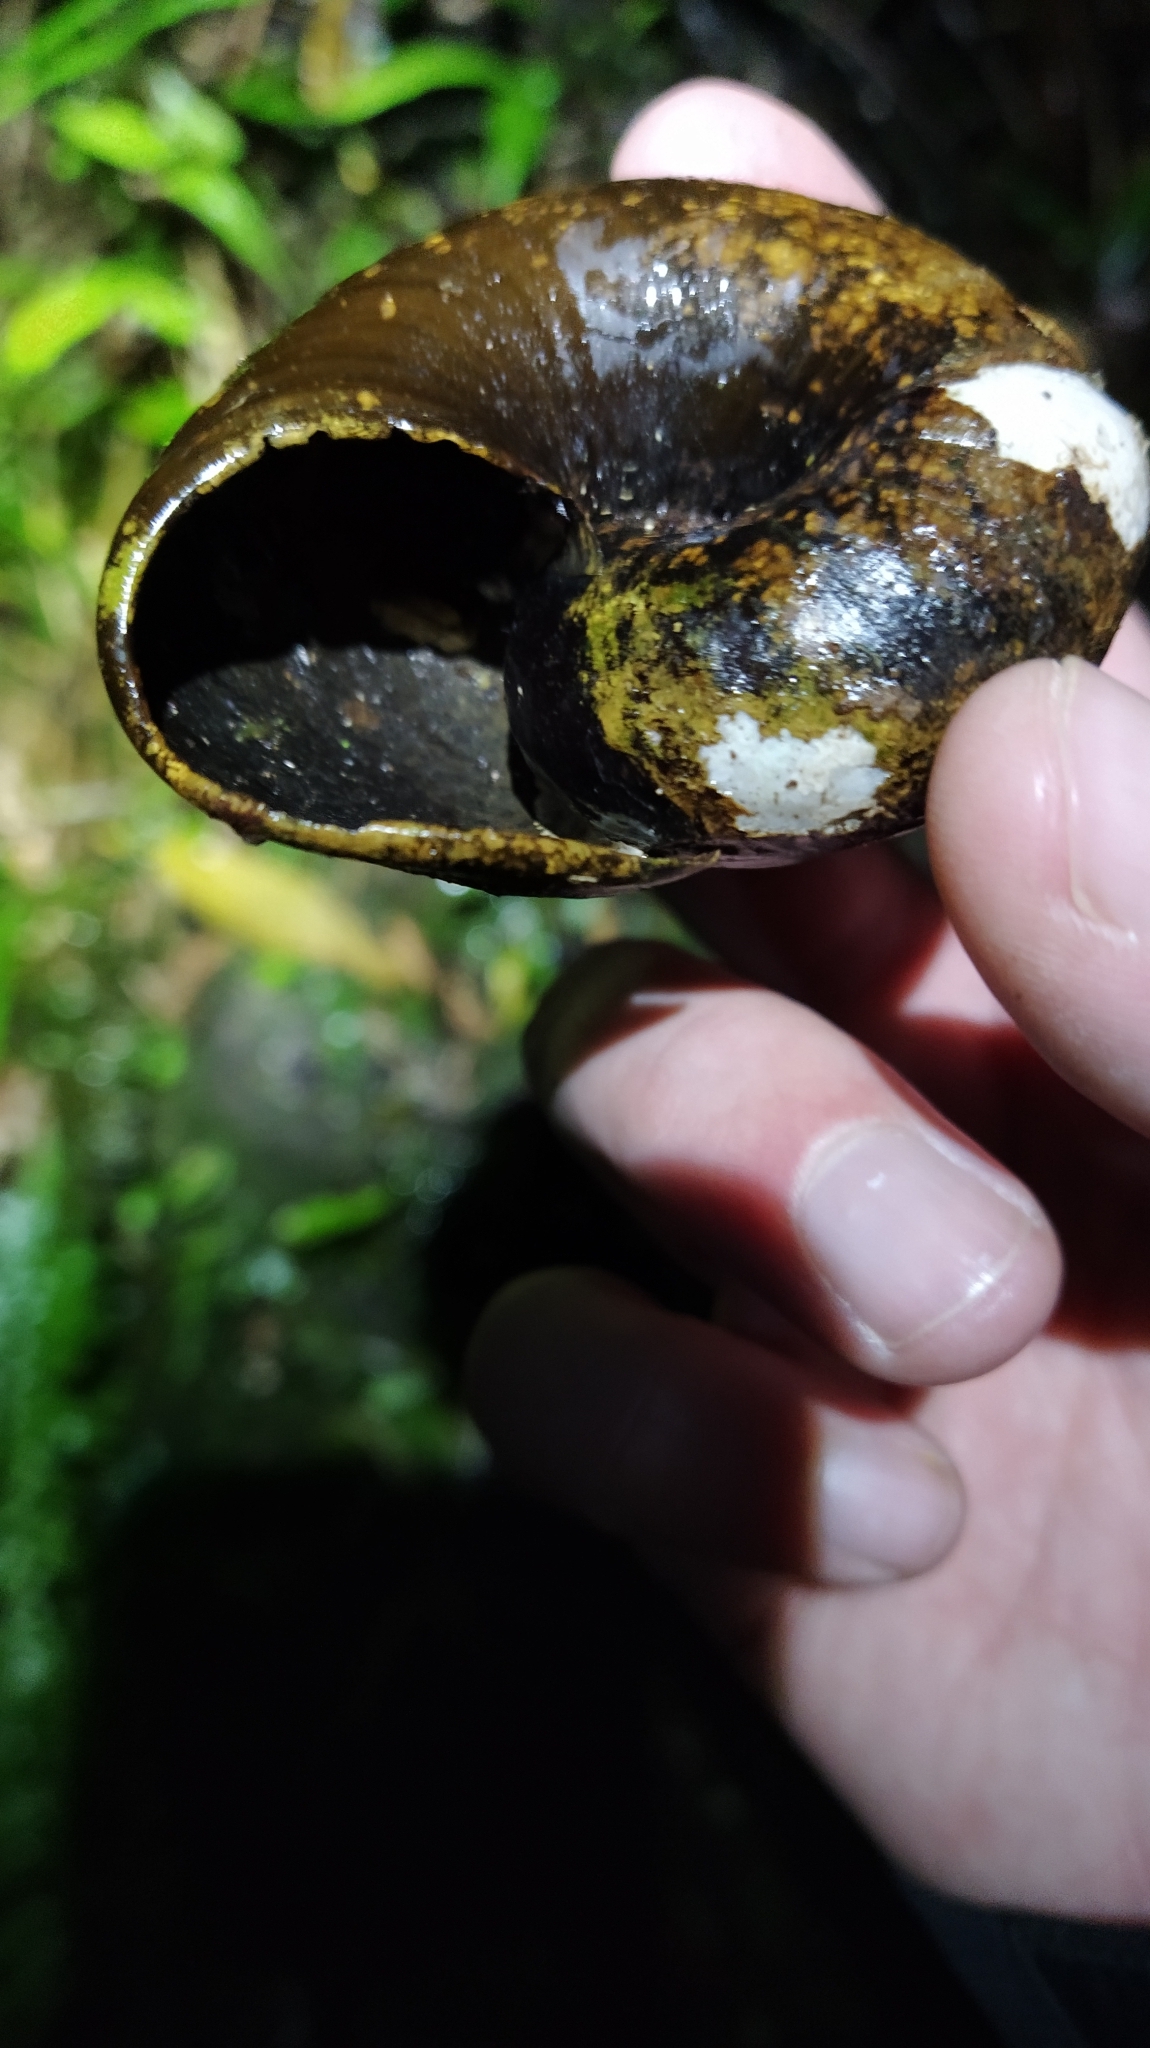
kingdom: Animalia
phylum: Mollusca
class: Gastropoda
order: Stylommatophora
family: Rhytididae
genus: Paryphanta
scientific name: Paryphanta busbyi
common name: Kauri snail
